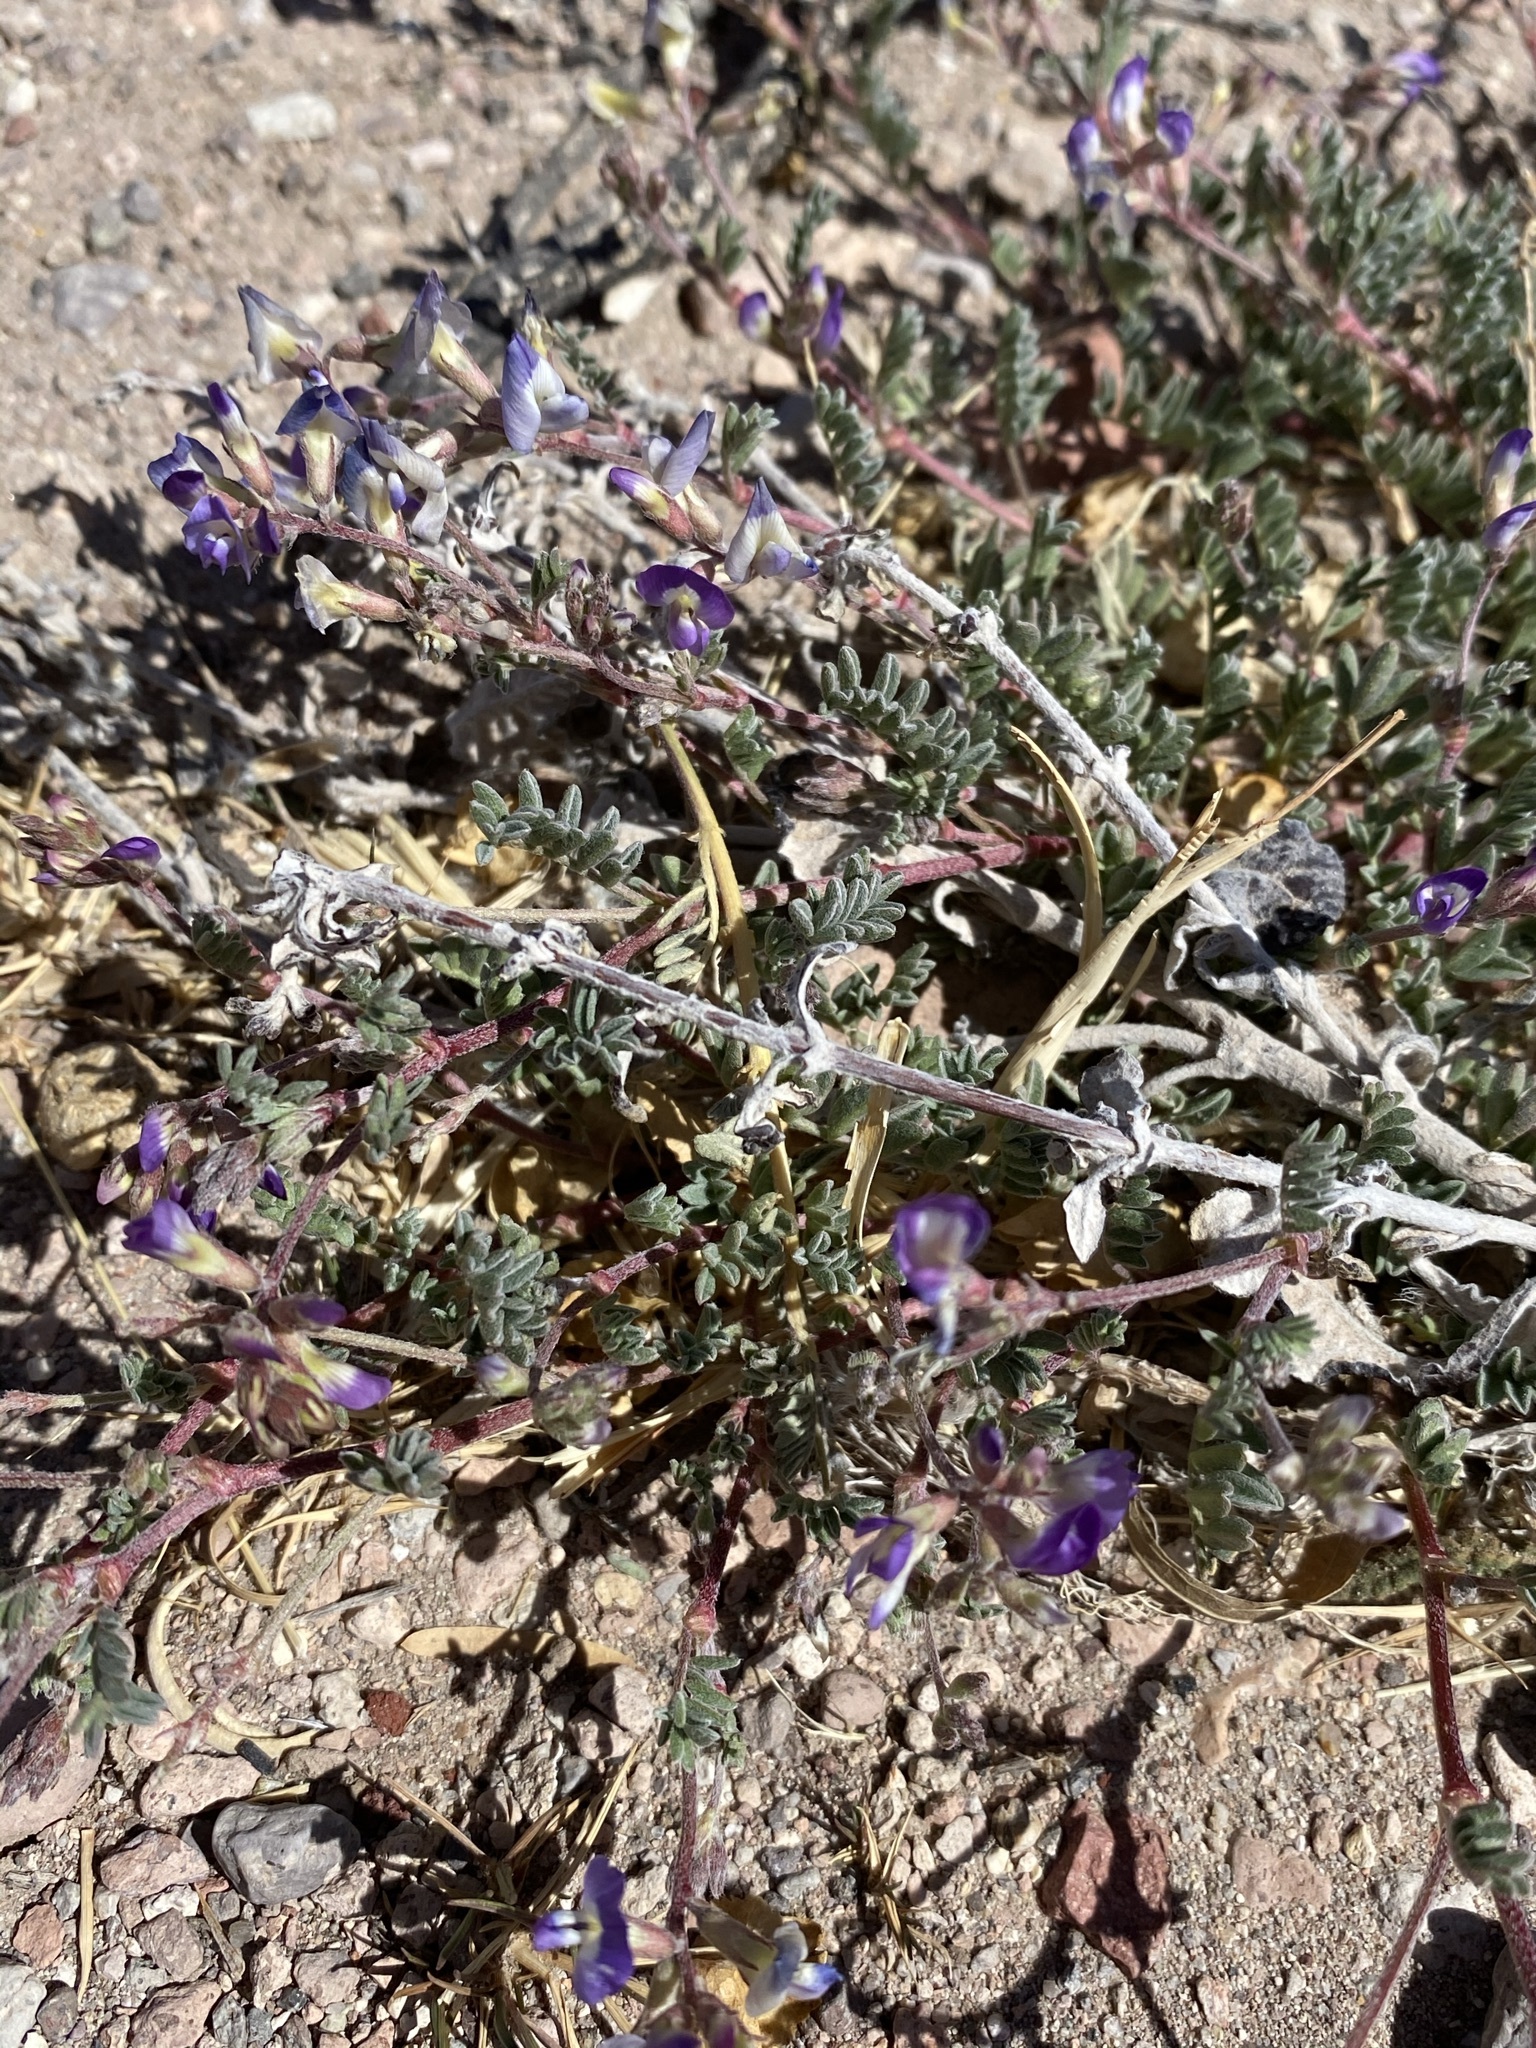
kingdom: Plantae
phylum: Tracheophyta
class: Magnoliopsida
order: Fabales
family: Fabaceae
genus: Astragalus
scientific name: Astragalus emoryanus
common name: Emory's milk-vetch
